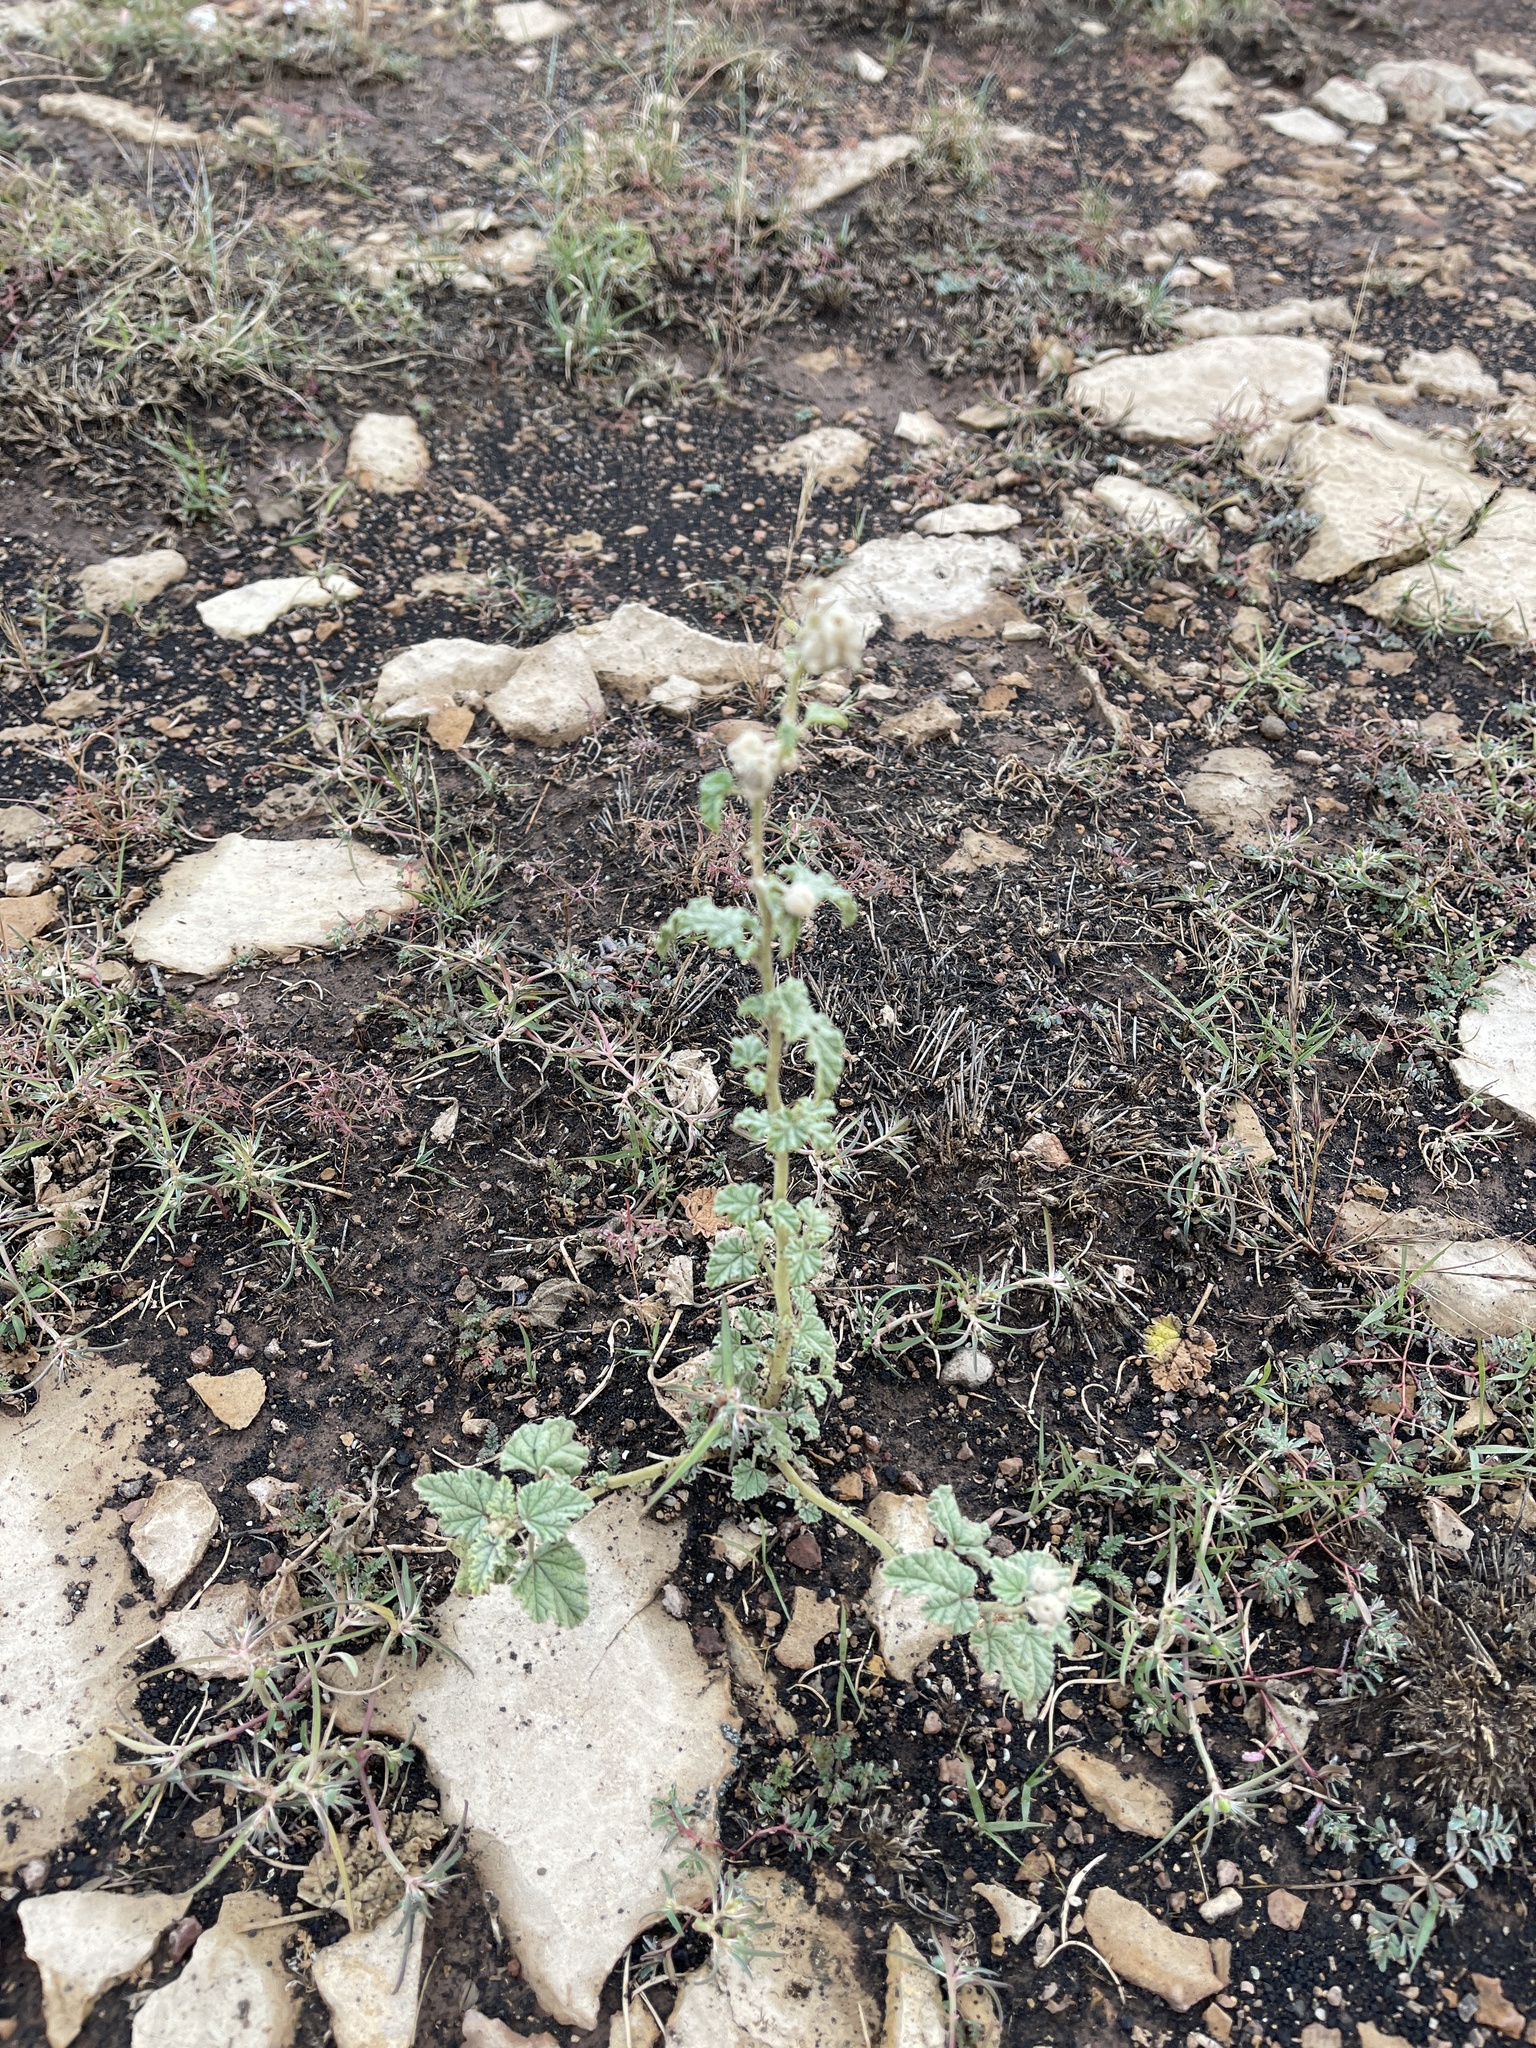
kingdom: Plantae
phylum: Tracheophyta
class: Magnoliopsida
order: Malvales
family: Malvaceae
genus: Sphaeralcea
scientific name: Sphaeralcea ambigua
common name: Apricot globe-mallow
